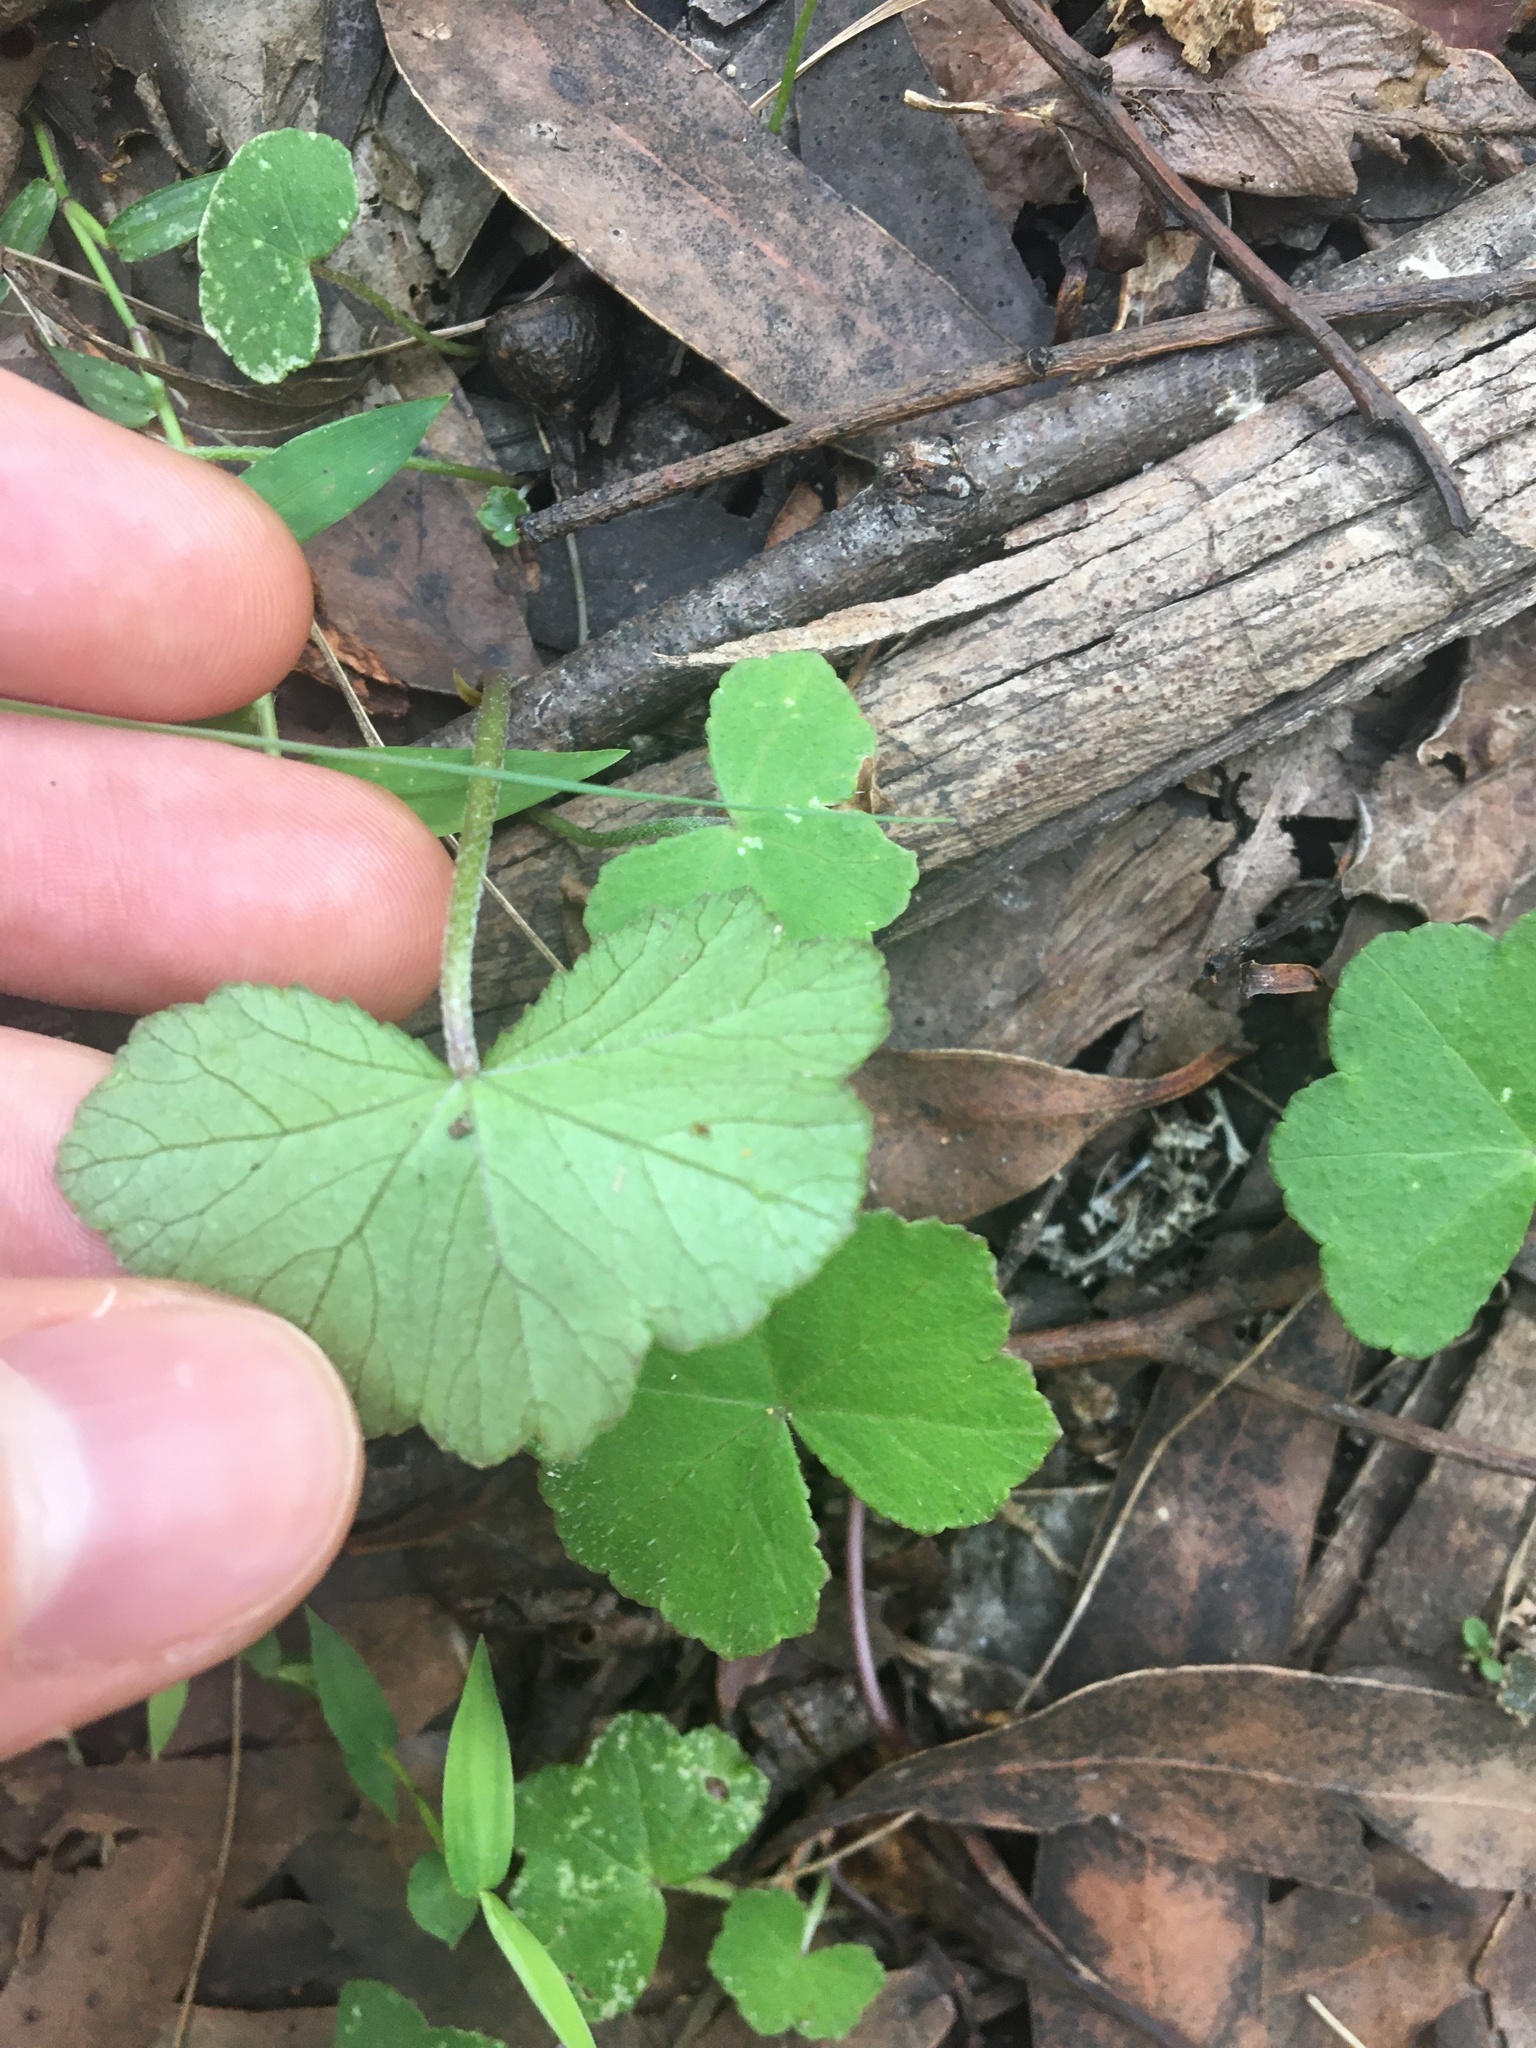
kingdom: Plantae
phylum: Tracheophyta
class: Magnoliopsida
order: Apiales
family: Araliaceae
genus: Hydrocotyle
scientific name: Hydrocotyle hirta
